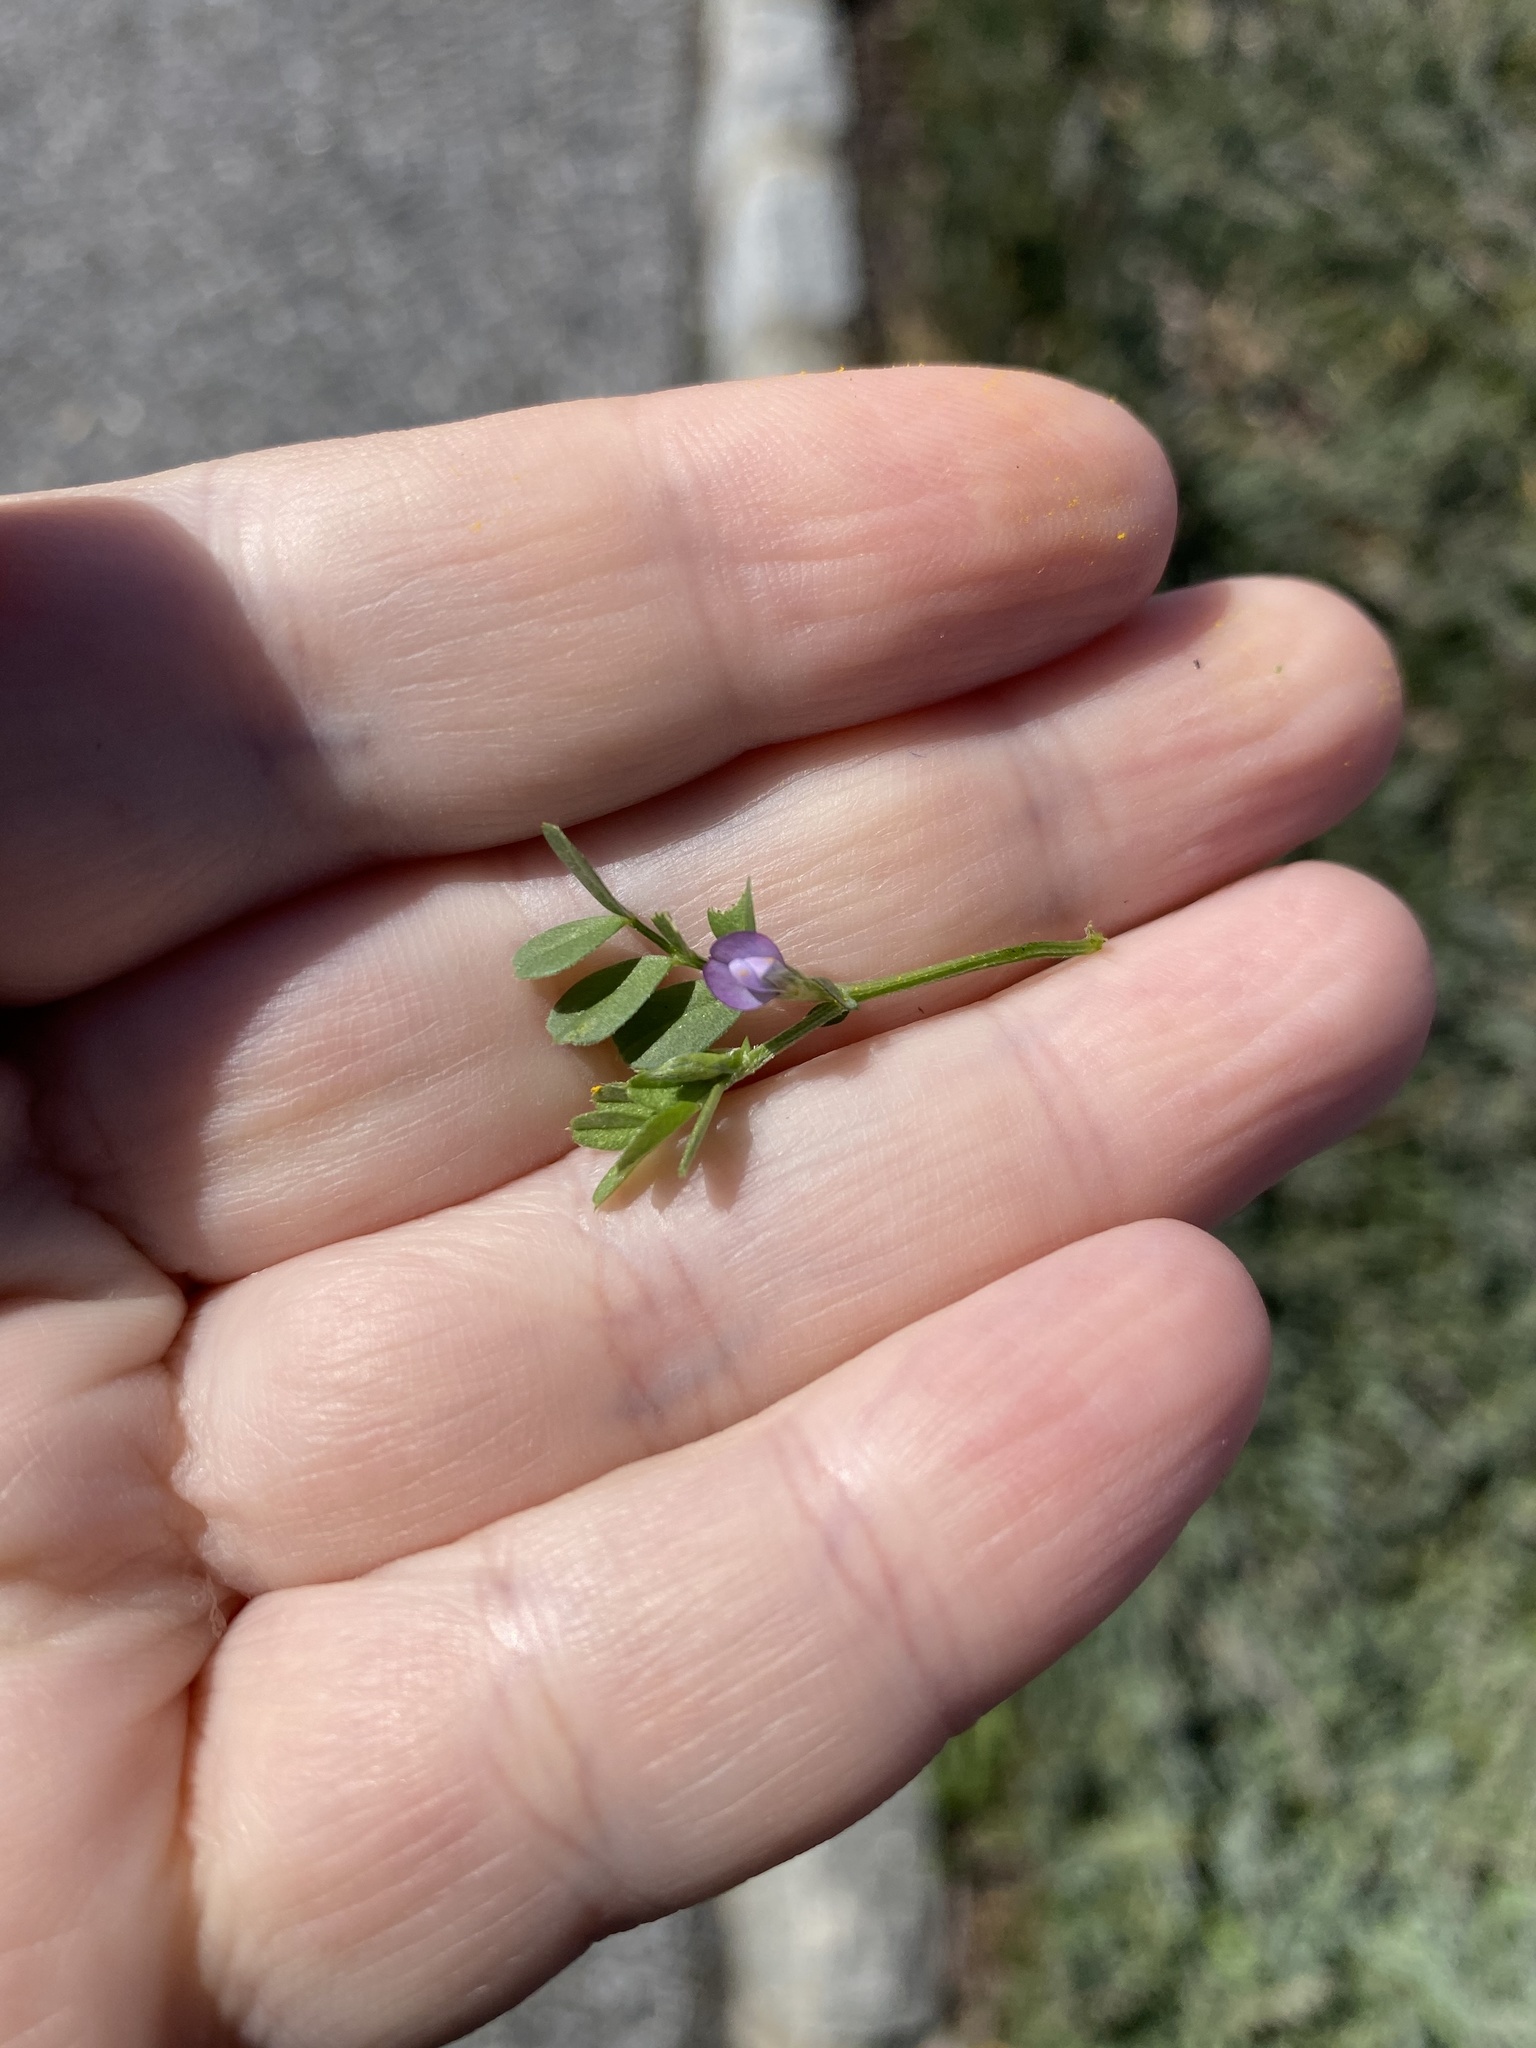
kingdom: Plantae
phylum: Tracheophyta
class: Magnoliopsida
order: Fabales
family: Fabaceae
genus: Vicia
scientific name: Vicia lathyroides
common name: Spring vetch
